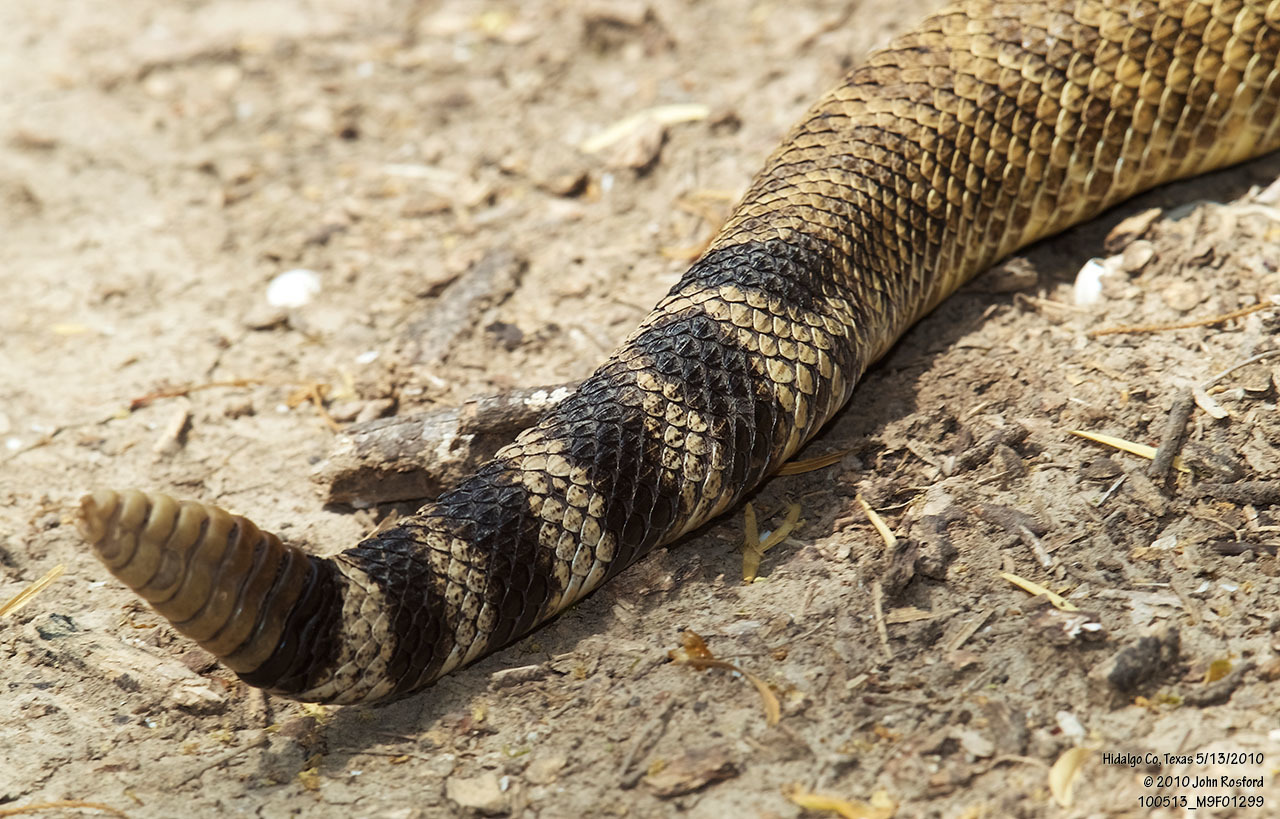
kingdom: Animalia
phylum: Chordata
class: Squamata
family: Viperidae
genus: Crotalus
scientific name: Crotalus atrox
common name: Western diamond-backed rattlesnake
